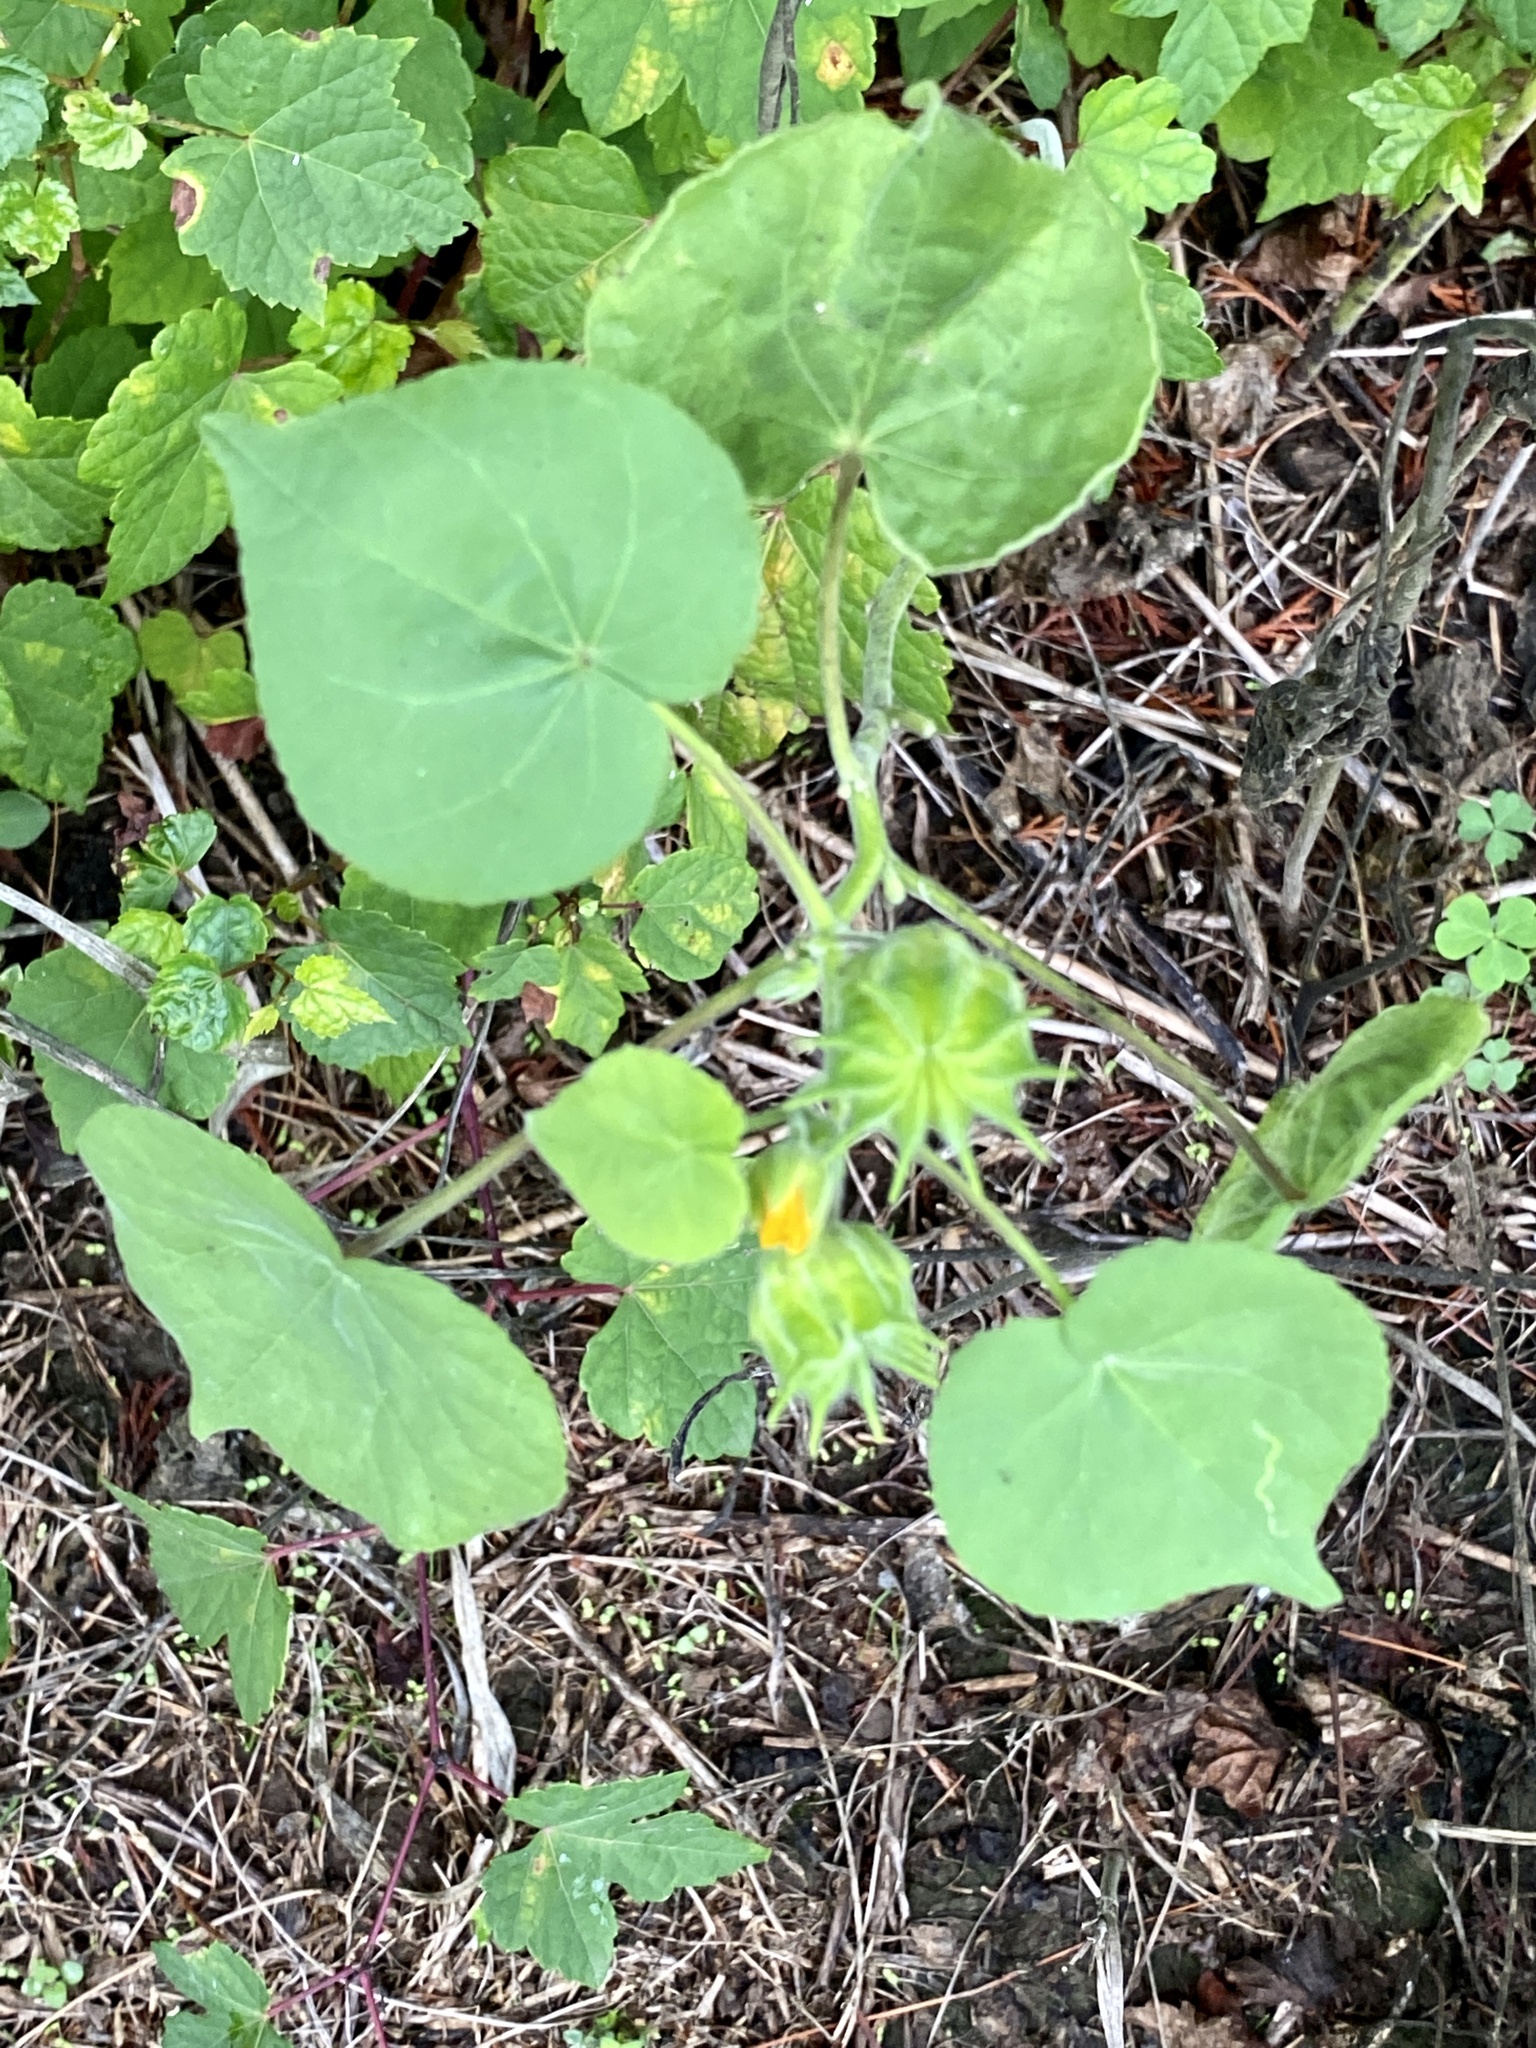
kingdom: Plantae
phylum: Tracheophyta
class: Magnoliopsida
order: Malvales
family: Malvaceae
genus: Abutilon
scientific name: Abutilon theophrasti
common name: Velvetleaf
